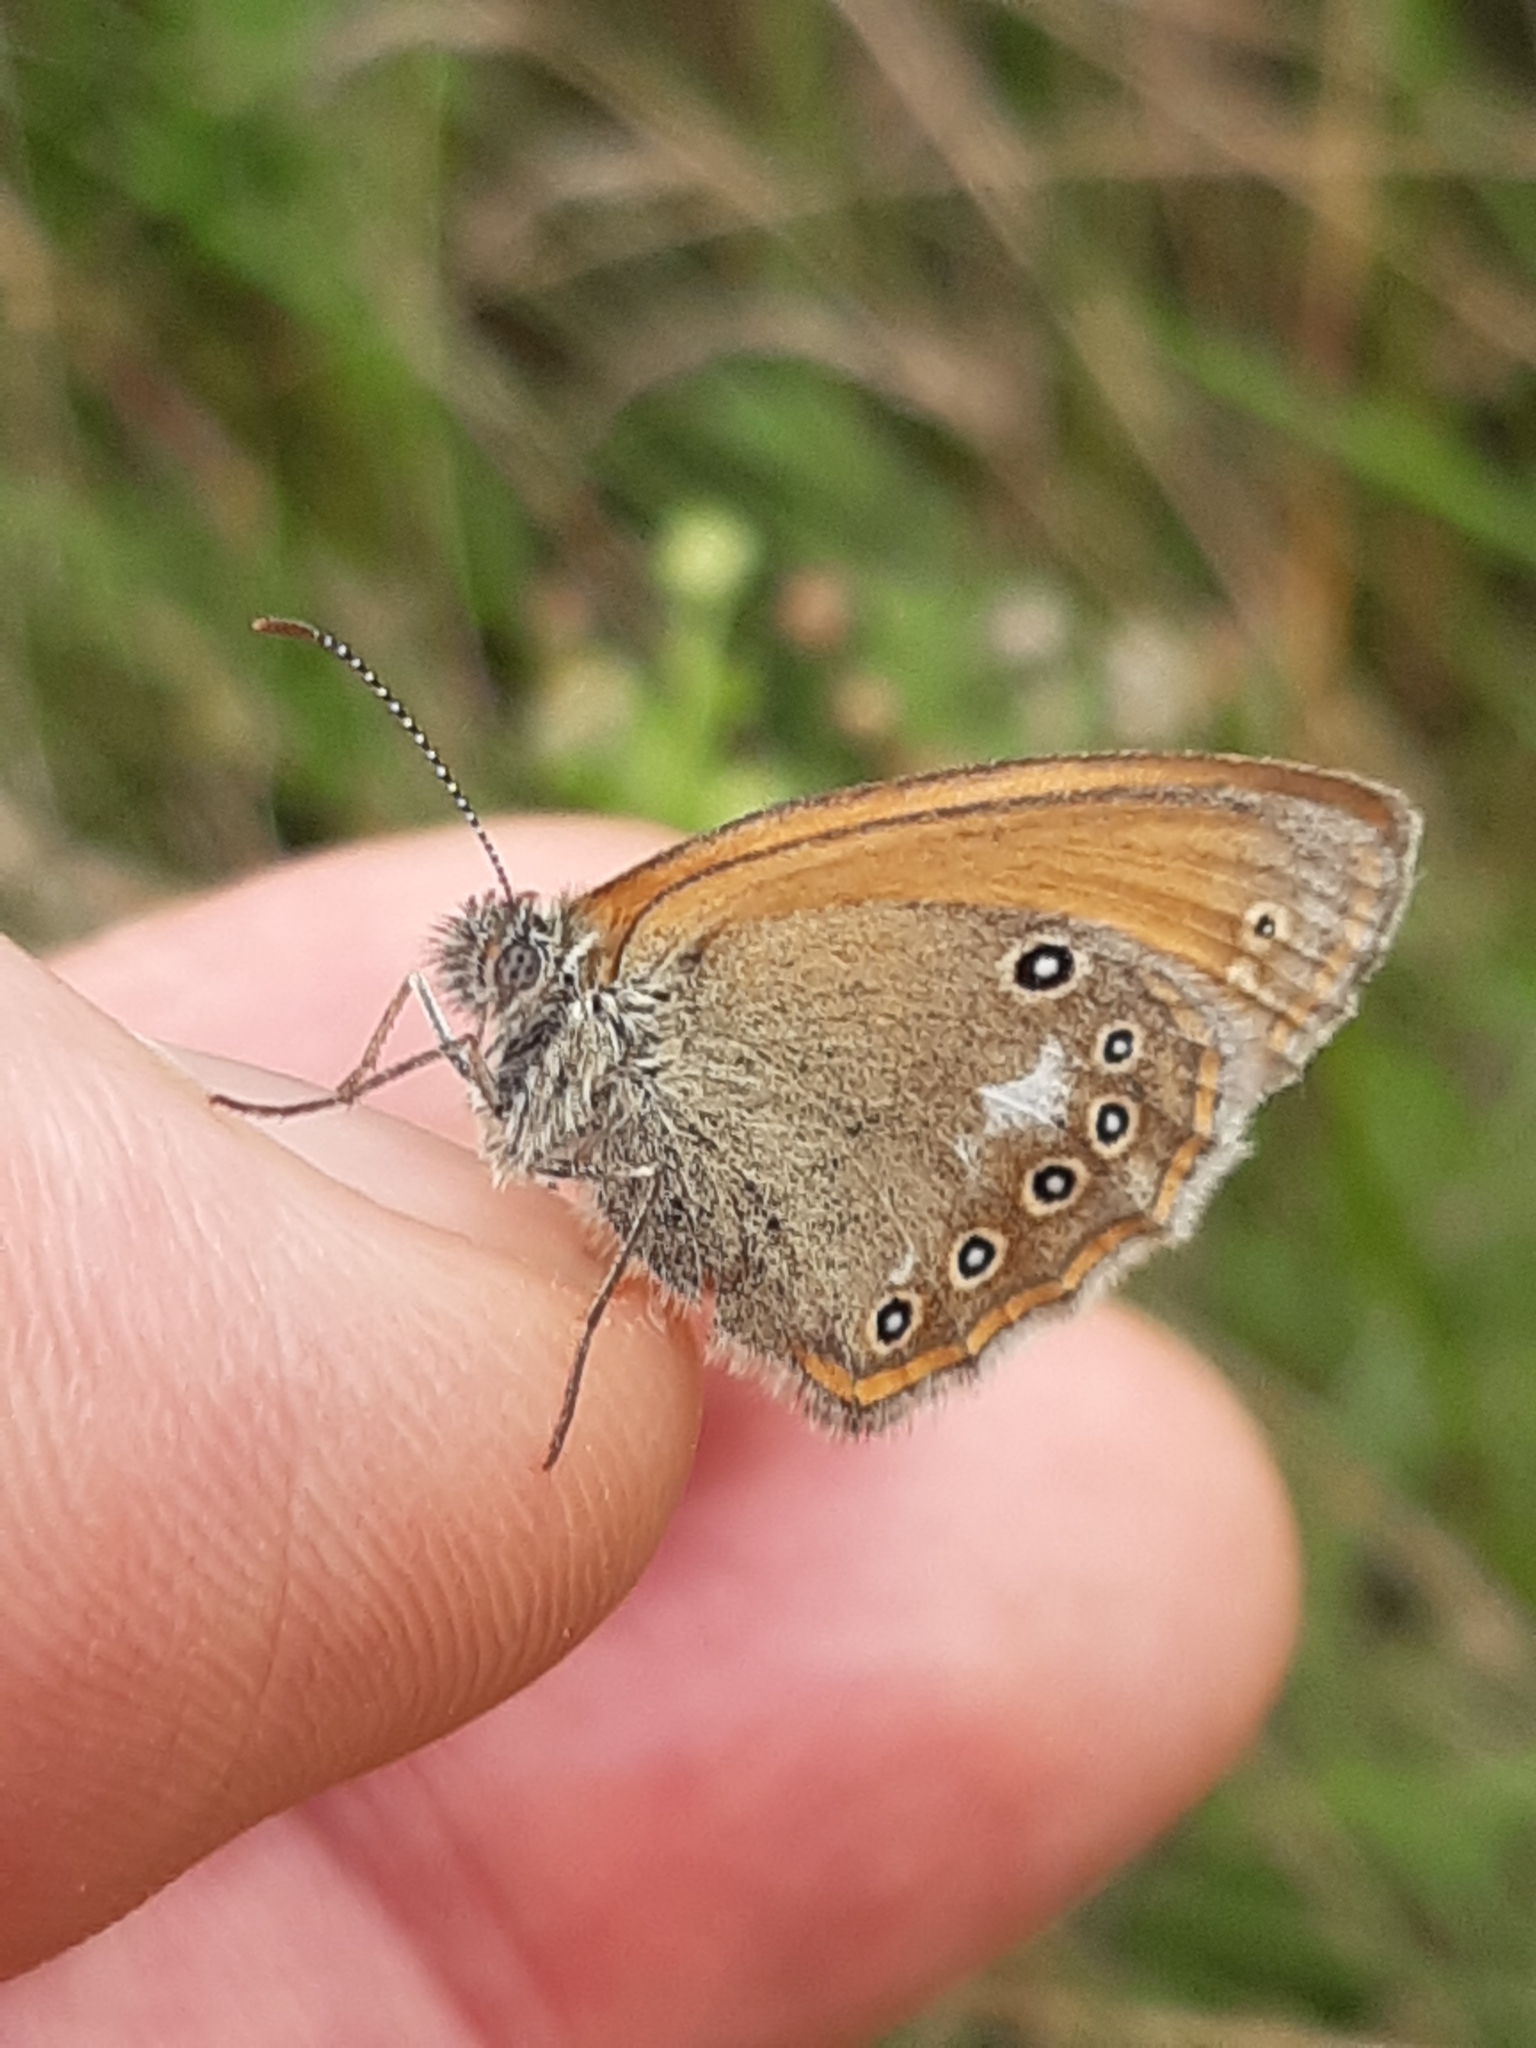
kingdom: Animalia
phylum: Arthropoda
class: Insecta
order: Lepidoptera
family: Nymphalidae
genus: Coenonympha
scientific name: Coenonympha iphis
